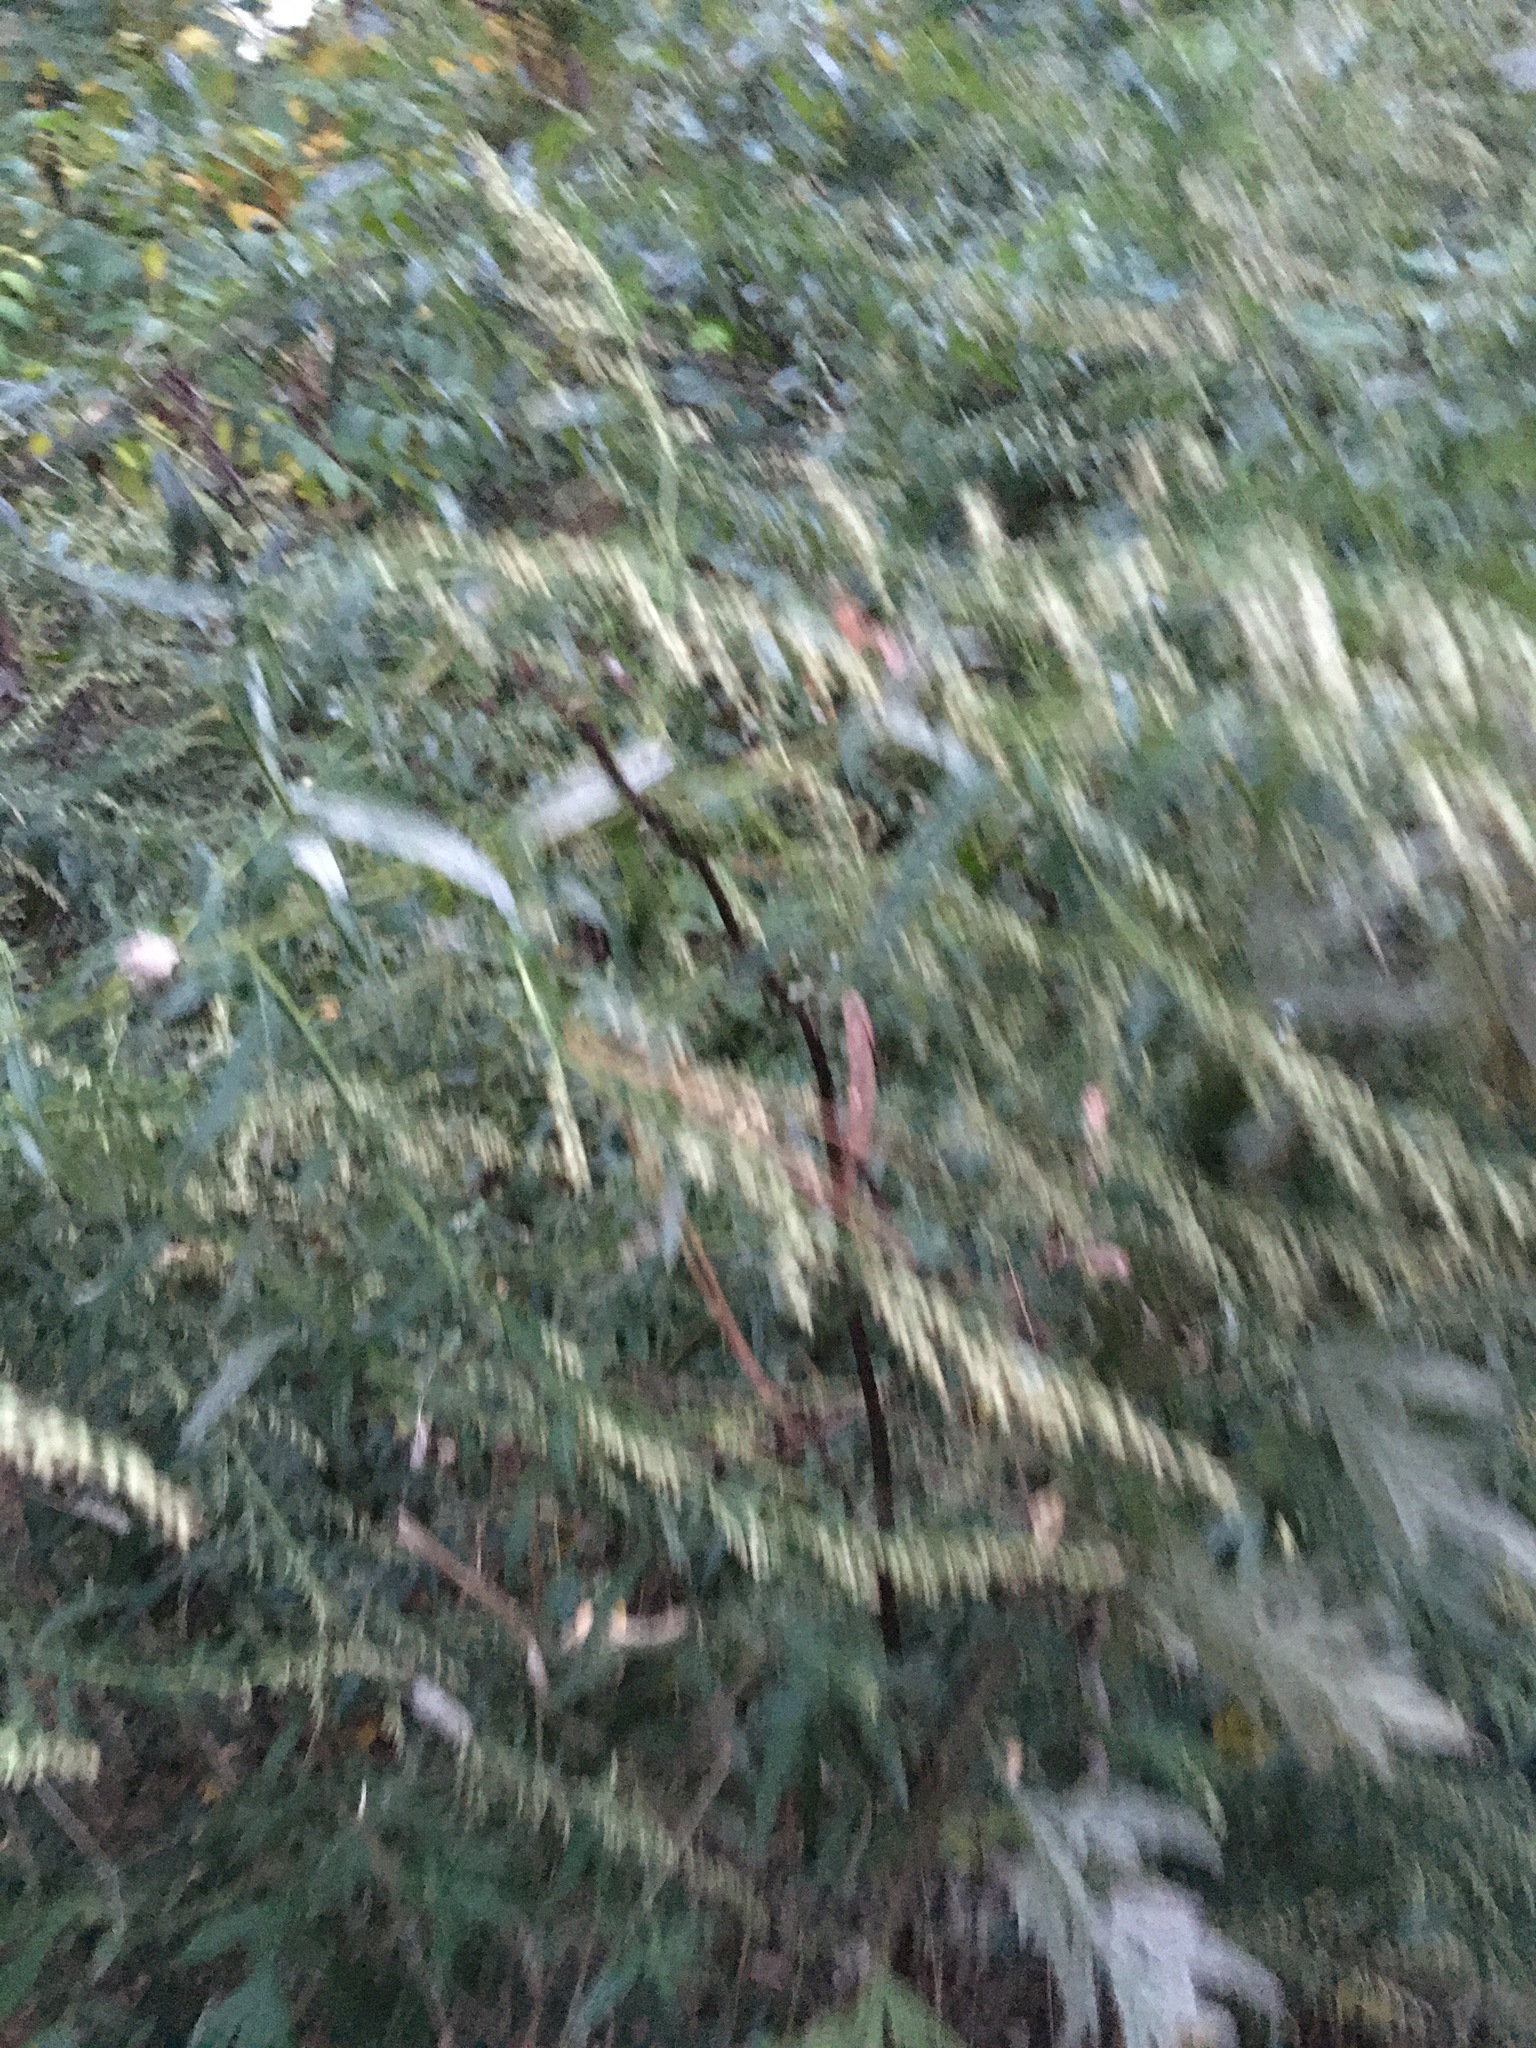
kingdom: Plantae
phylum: Tracheophyta
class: Magnoliopsida
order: Asterales
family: Asteraceae
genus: Artemisia
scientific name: Artemisia vulgaris
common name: Mugwort
